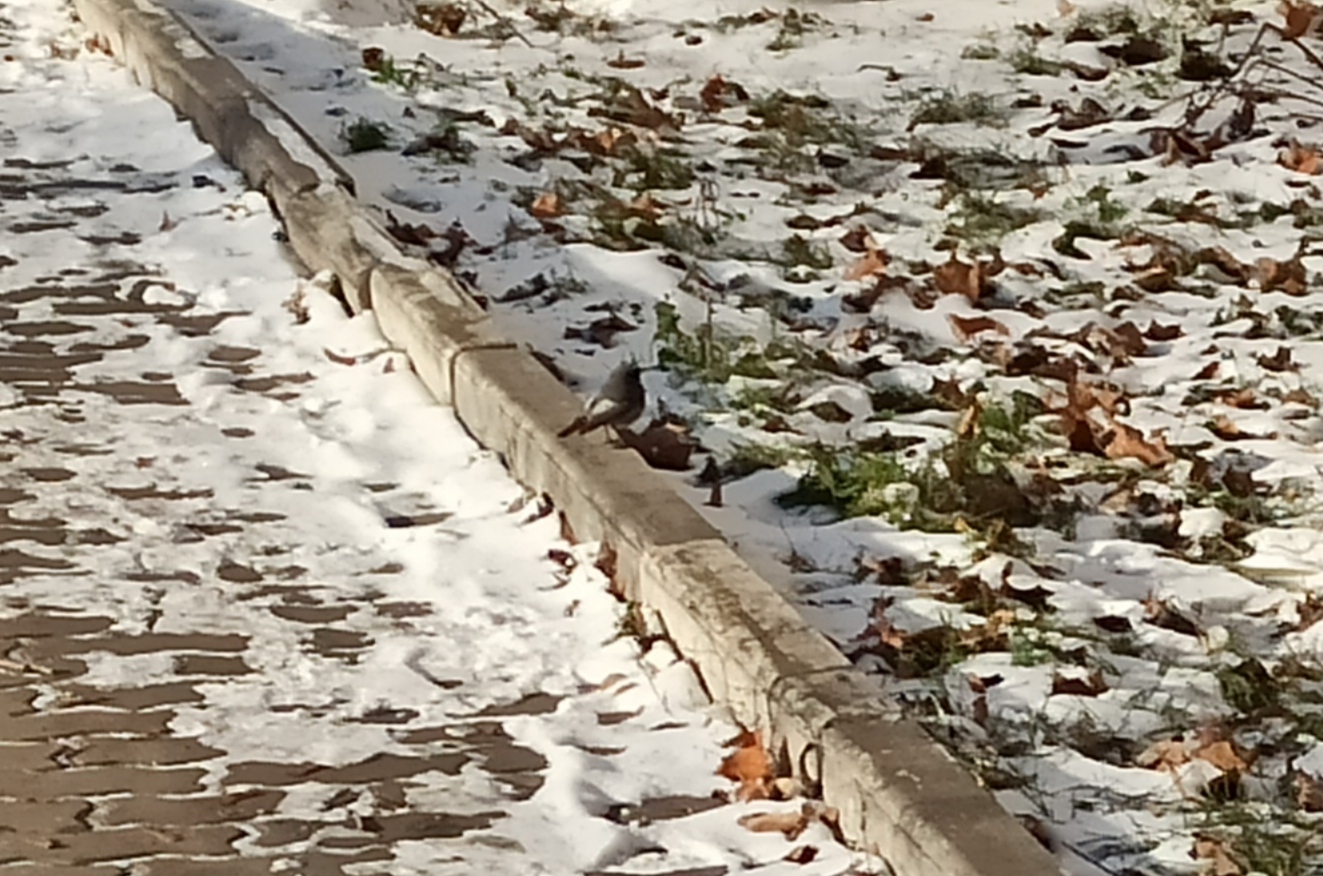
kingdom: Animalia
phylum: Chordata
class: Aves
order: Passeriformes
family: Muscicapidae
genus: Phoenicurus
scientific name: Phoenicurus ochruros
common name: Black redstart
